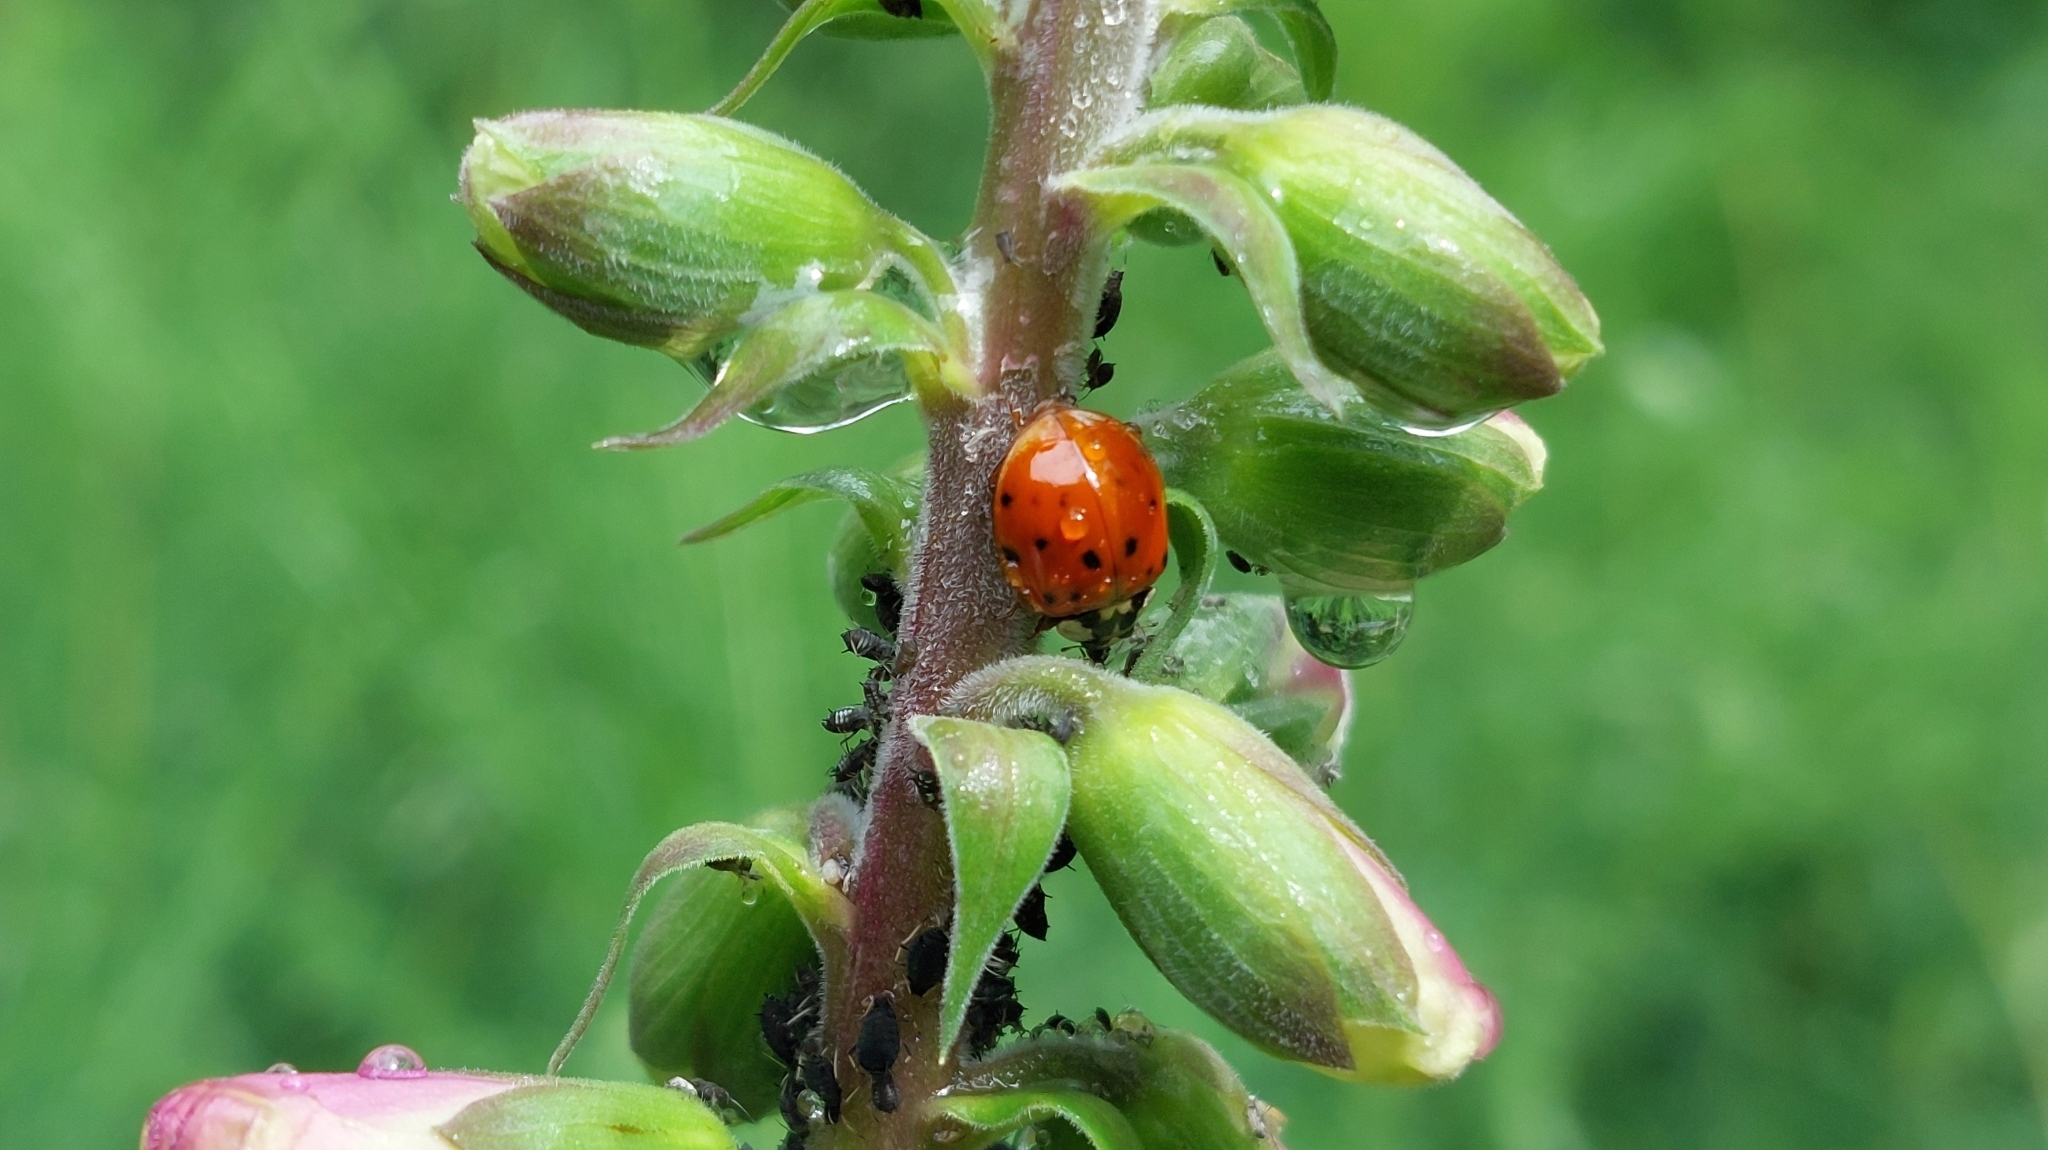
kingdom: Animalia
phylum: Arthropoda
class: Insecta
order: Coleoptera
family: Coccinellidae
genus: Harmonia
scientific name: Harmonia axyridis
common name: Harlequin ladybird
